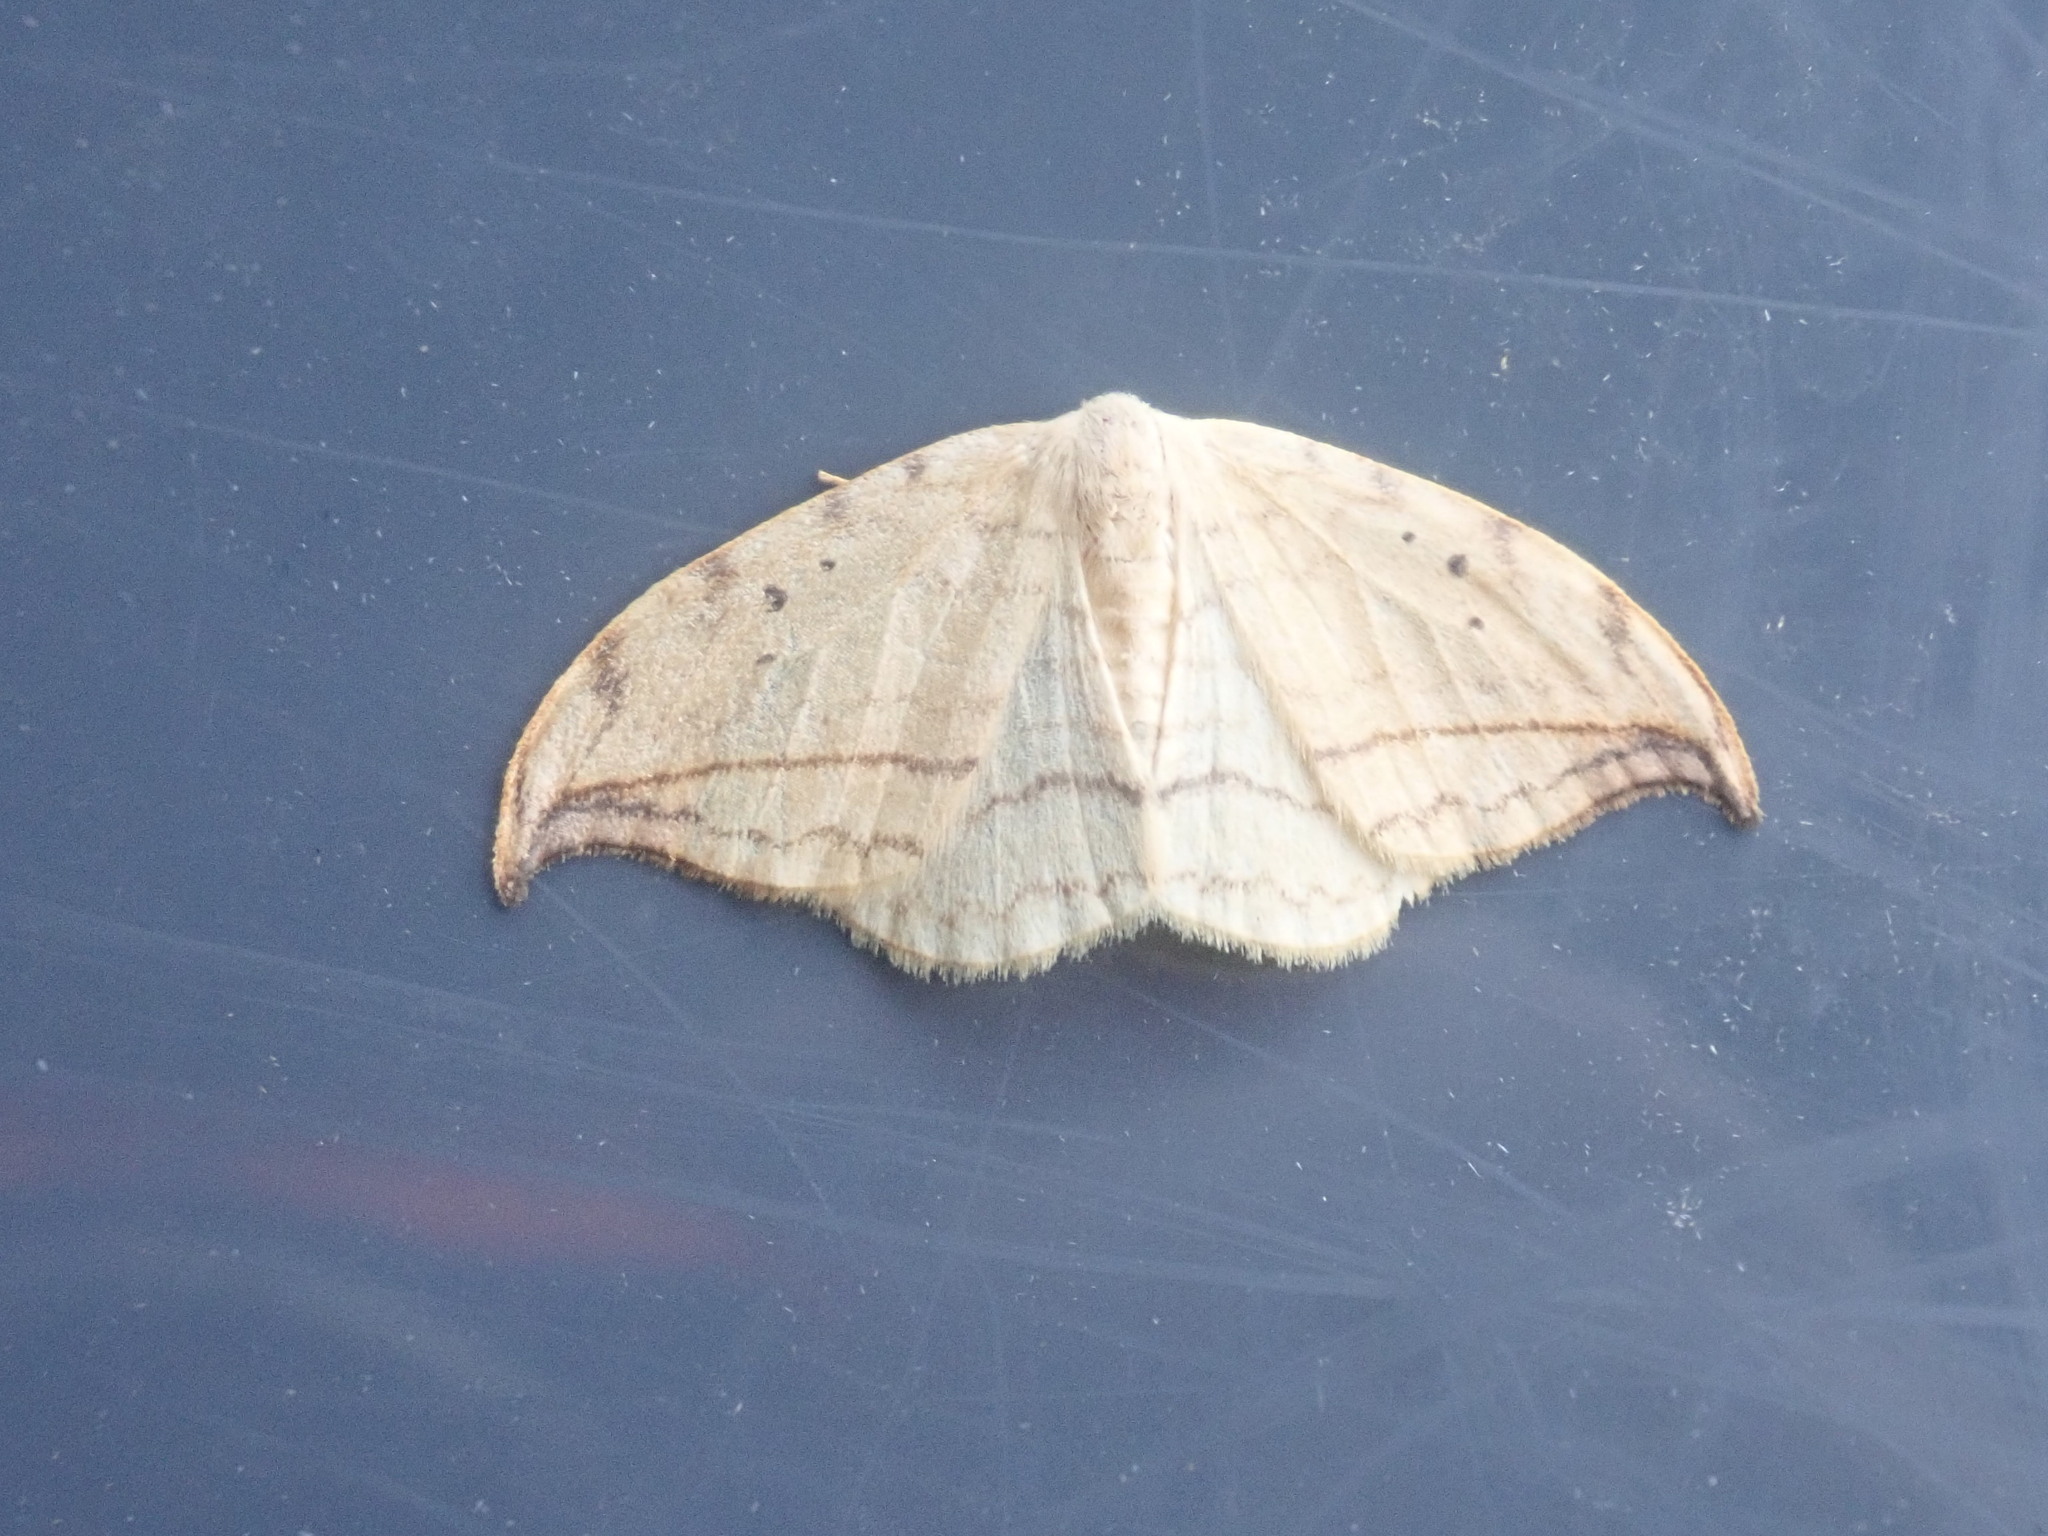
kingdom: Animalia
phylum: Arthropoda
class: Insecta
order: Lepidoptera
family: Drepanidae
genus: Drepana
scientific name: Drepana arcuata
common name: Arched hooktip moth
